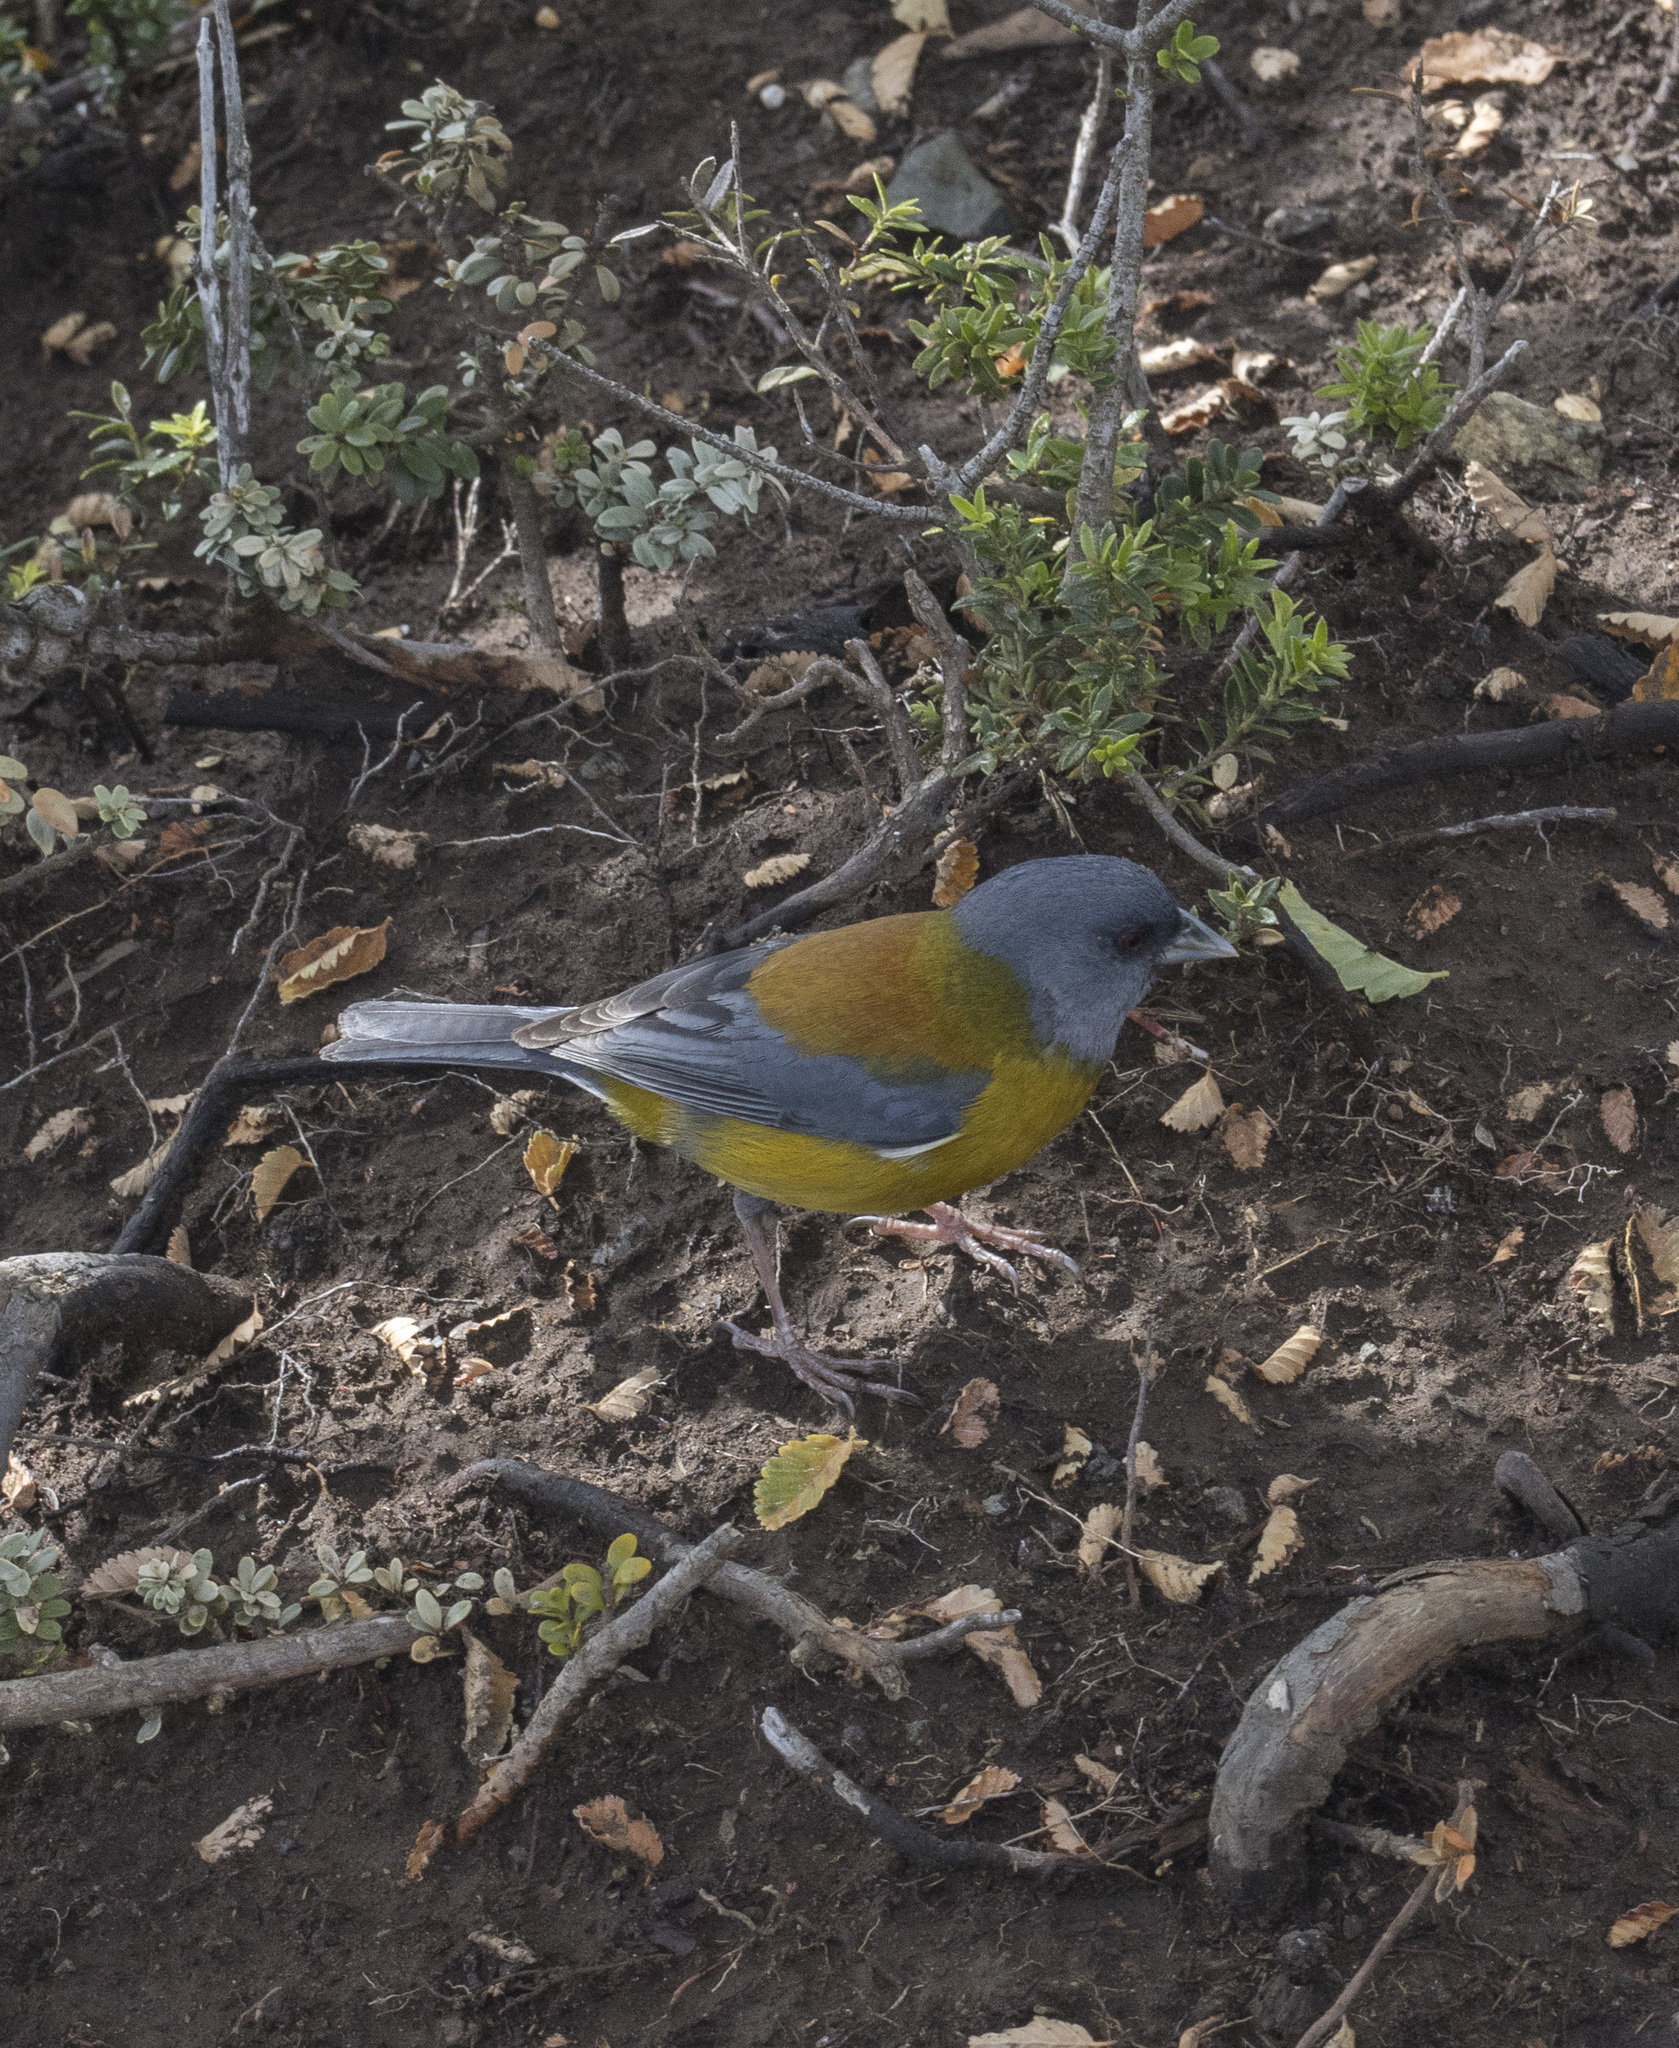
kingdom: Animalia
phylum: Chordata
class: Aves
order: Passeriformes
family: Thraupidae
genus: Phrygilus
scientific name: Phrygilus patagonicus
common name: Patagonian sierra finch
